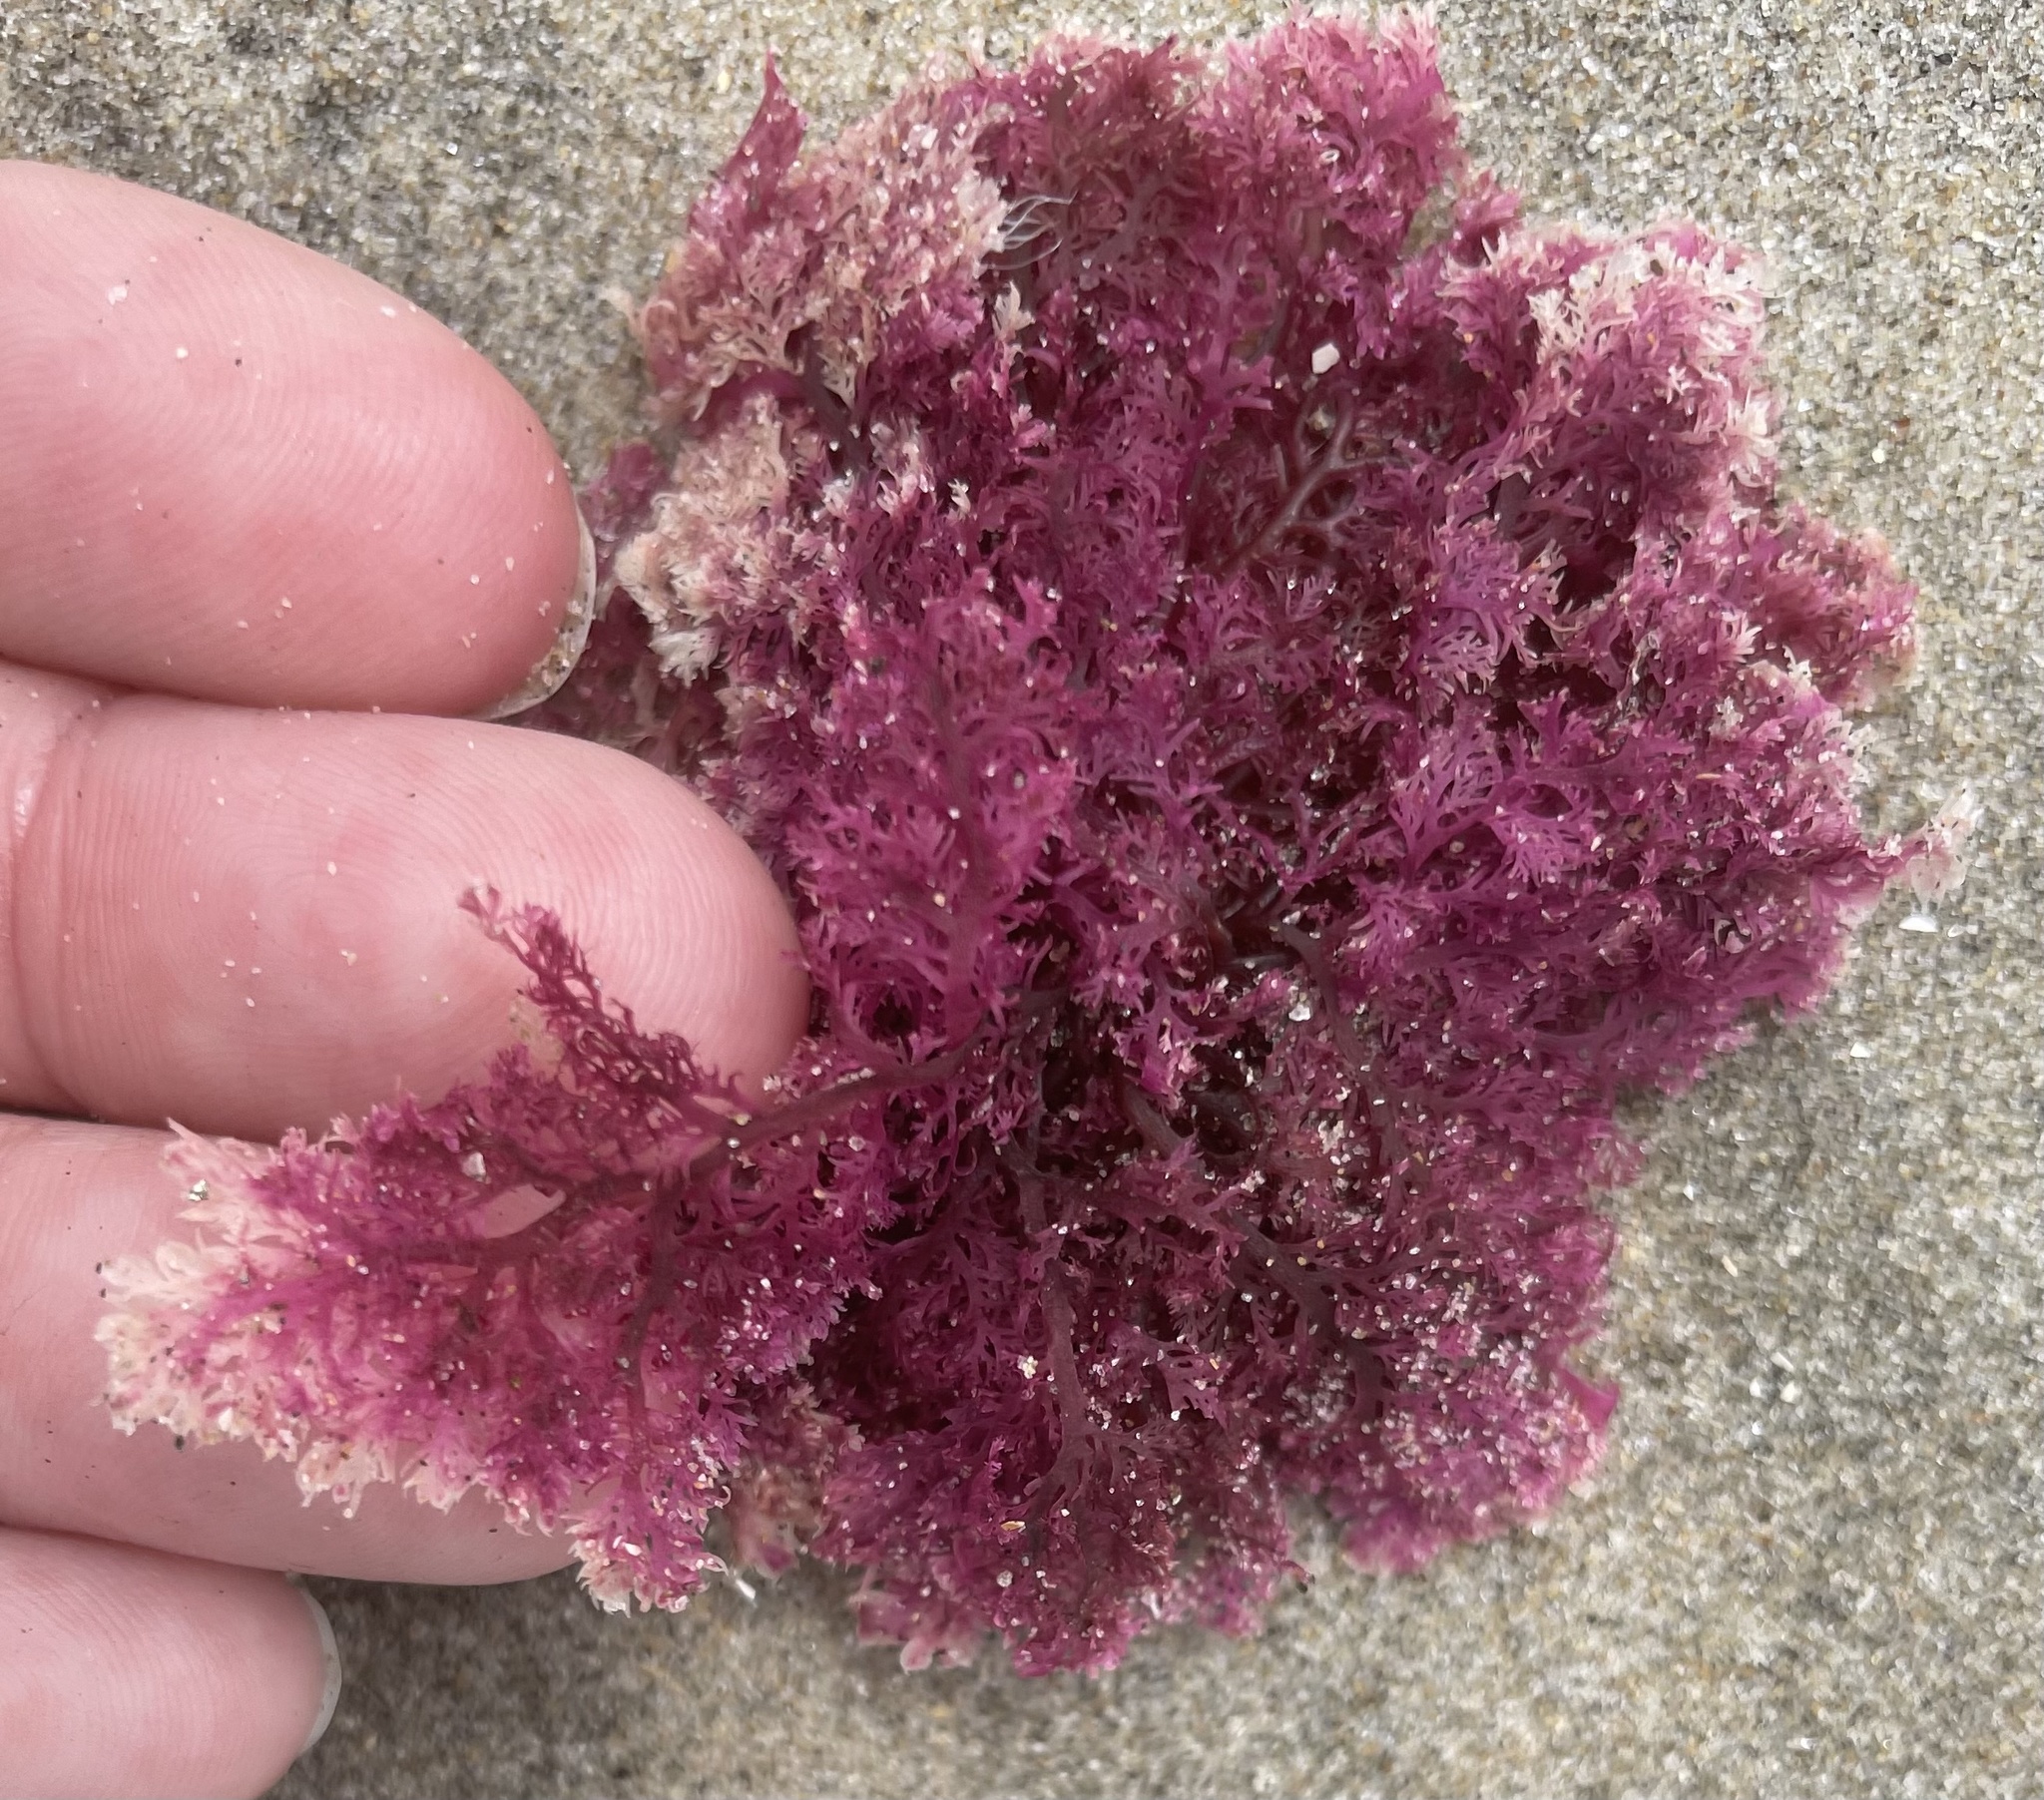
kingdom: Plantae
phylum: Rhodophyta
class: Florideophyceae
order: Plocamiales
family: Plocamiaceae
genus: Plocamium
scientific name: Plocamium cartilagineum
